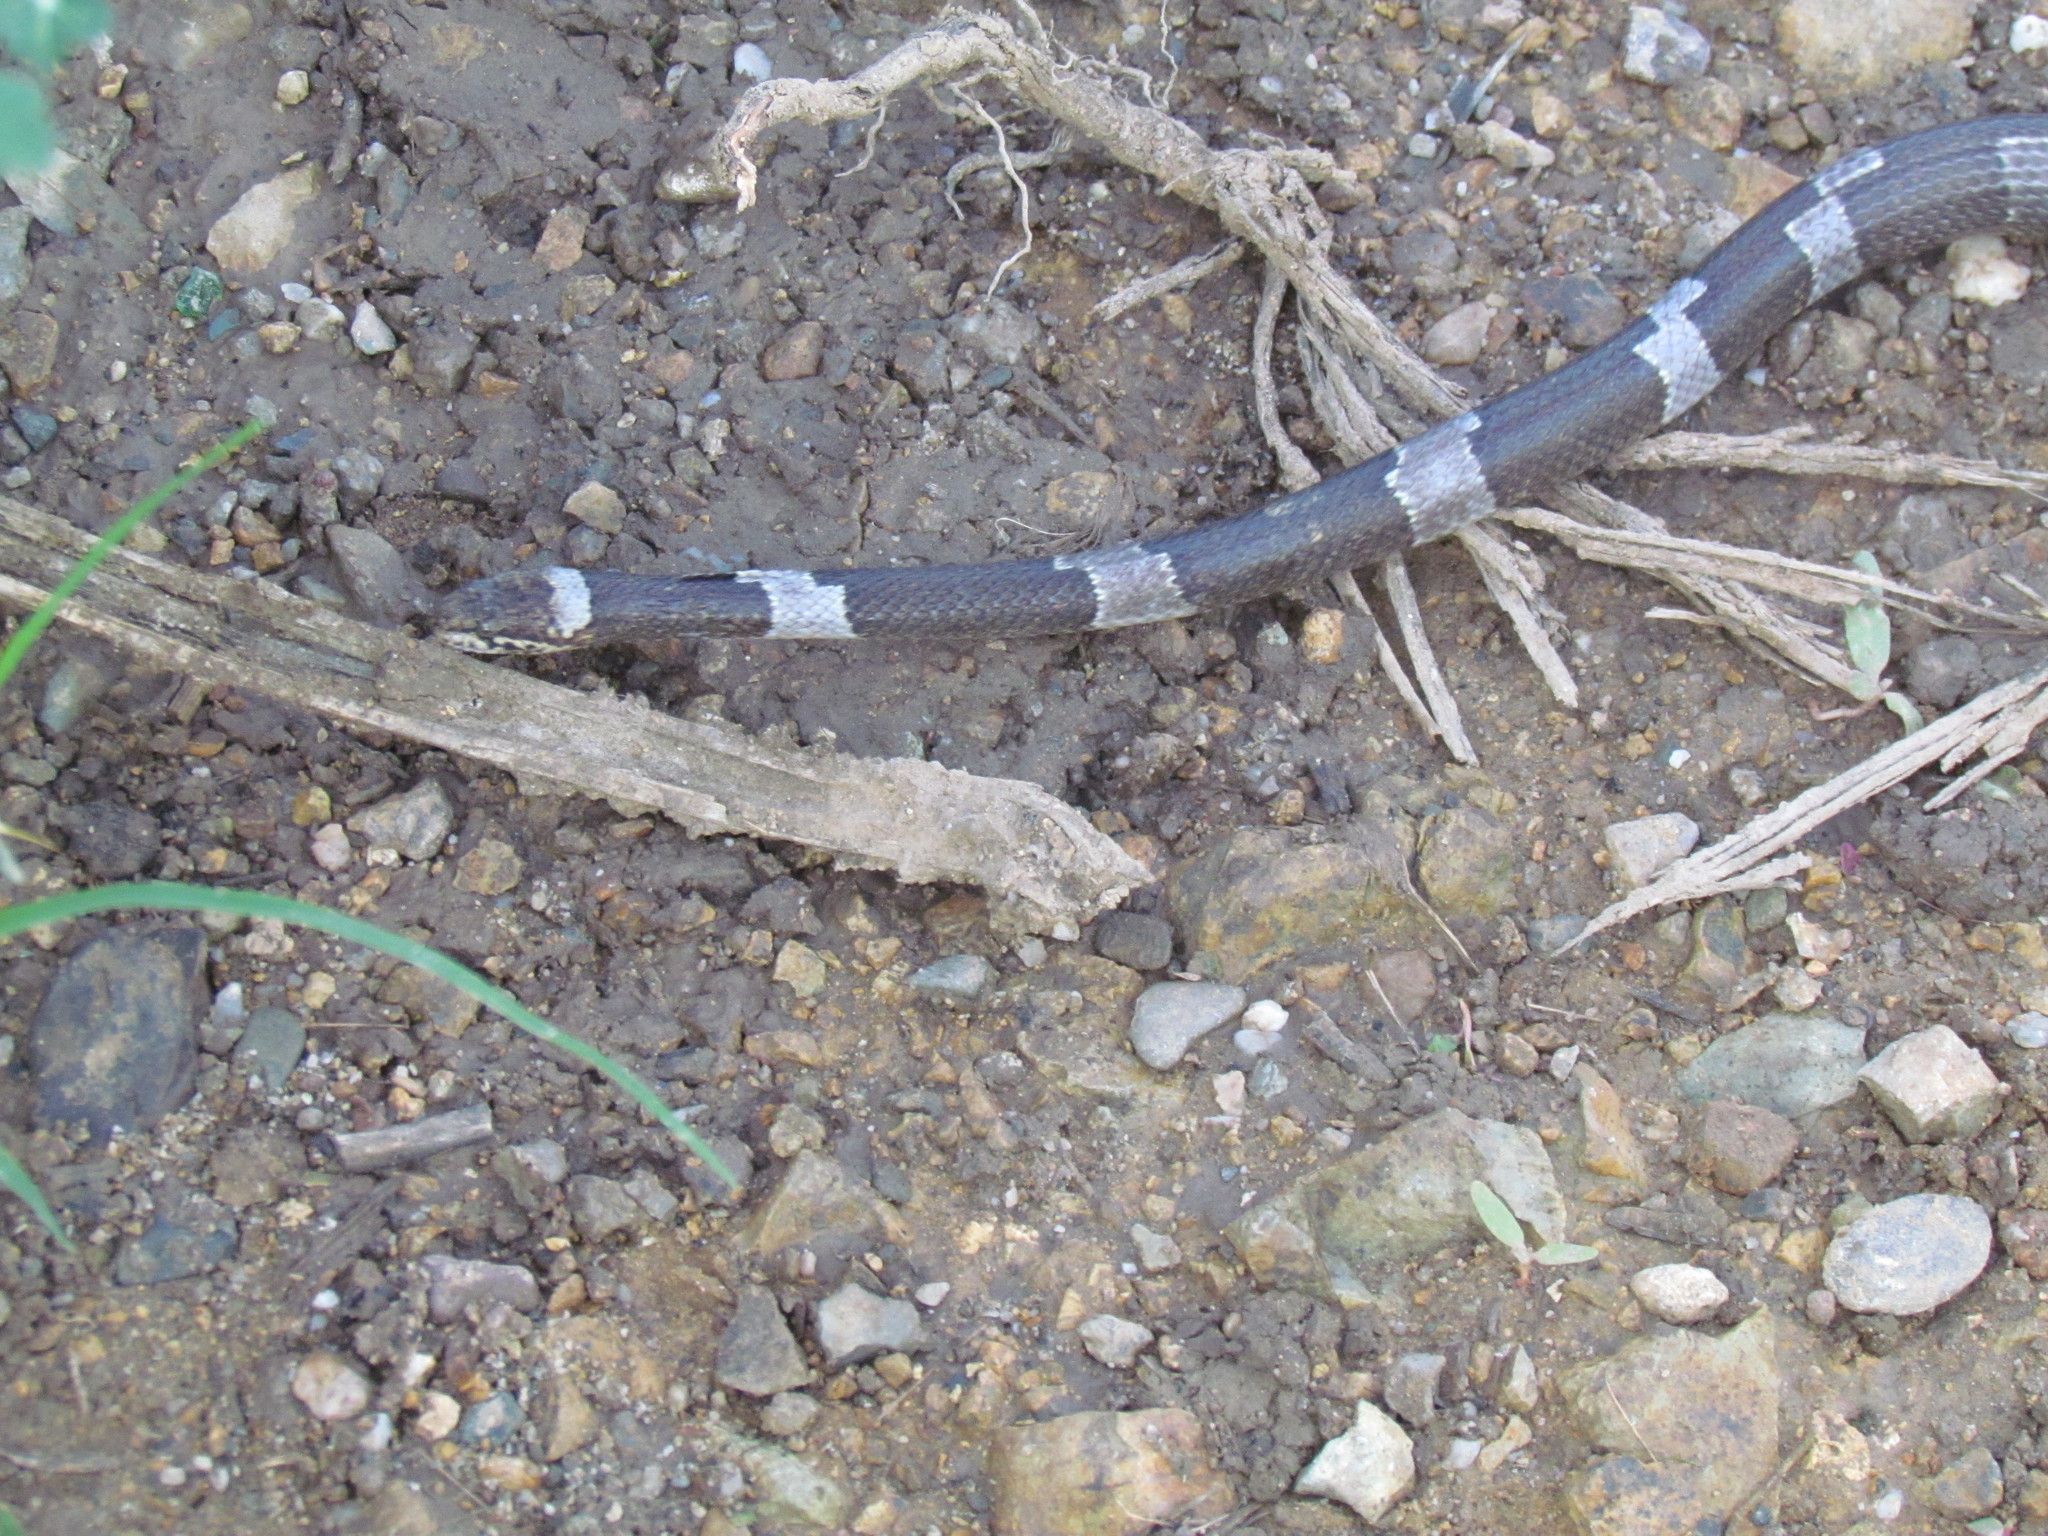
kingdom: Animalia
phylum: Chordata
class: Squamata
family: Colubridae
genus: Leptodeira
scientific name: Leptodeira nigrofasciata
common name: Black-banded cat-eyed snake
